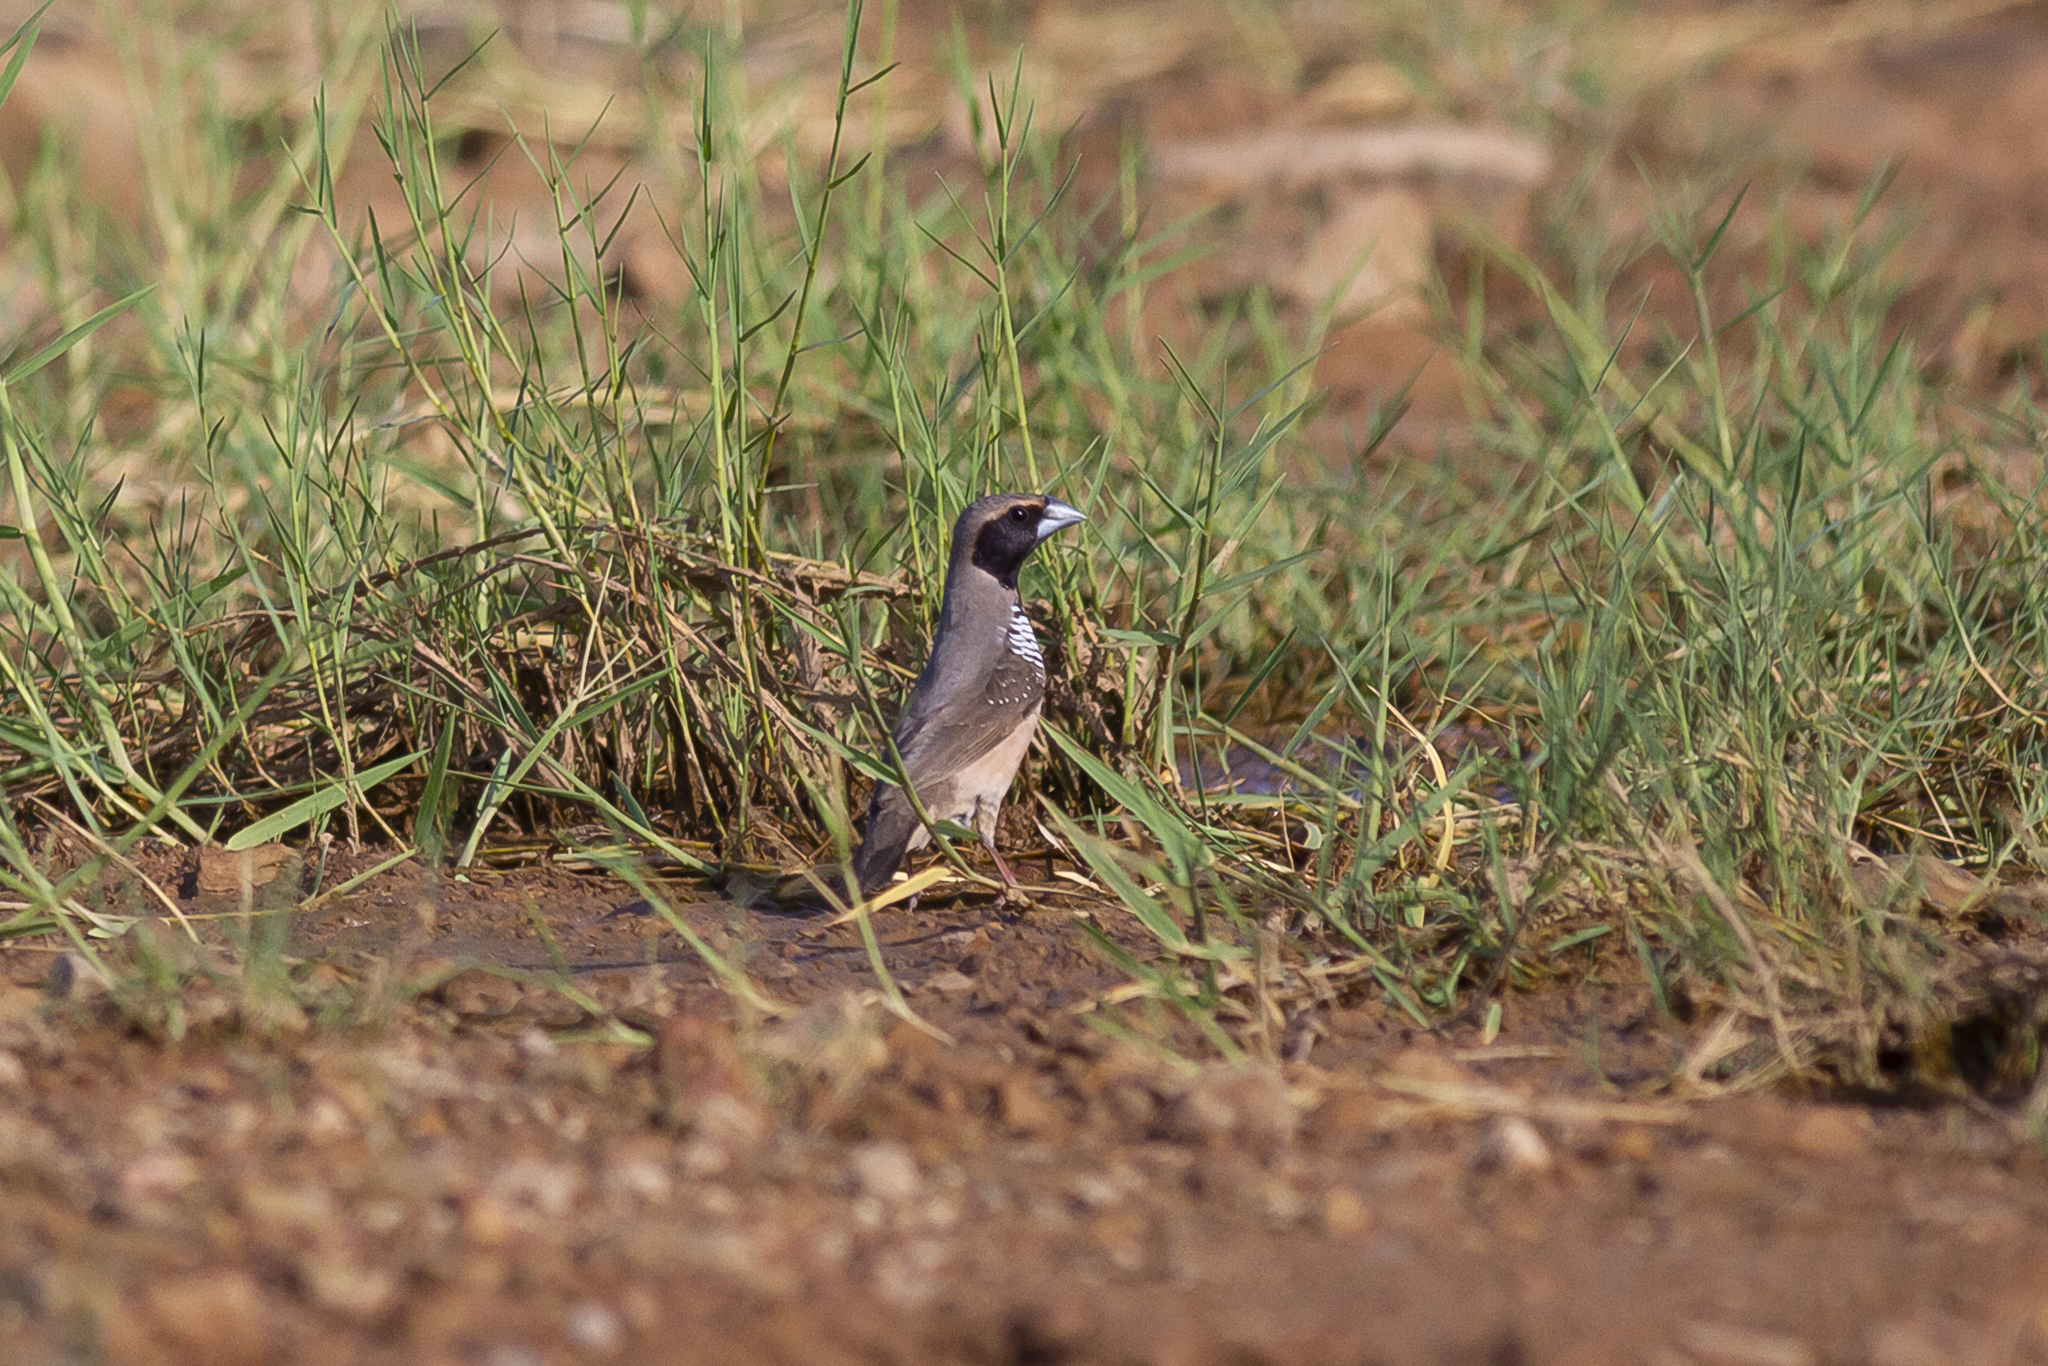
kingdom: Animalia
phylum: Chordata
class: Aves
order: Passeriformes
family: Estrildidae
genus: Heteromunia
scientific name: Heteromunia pectoralis
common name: Pictorella munia
